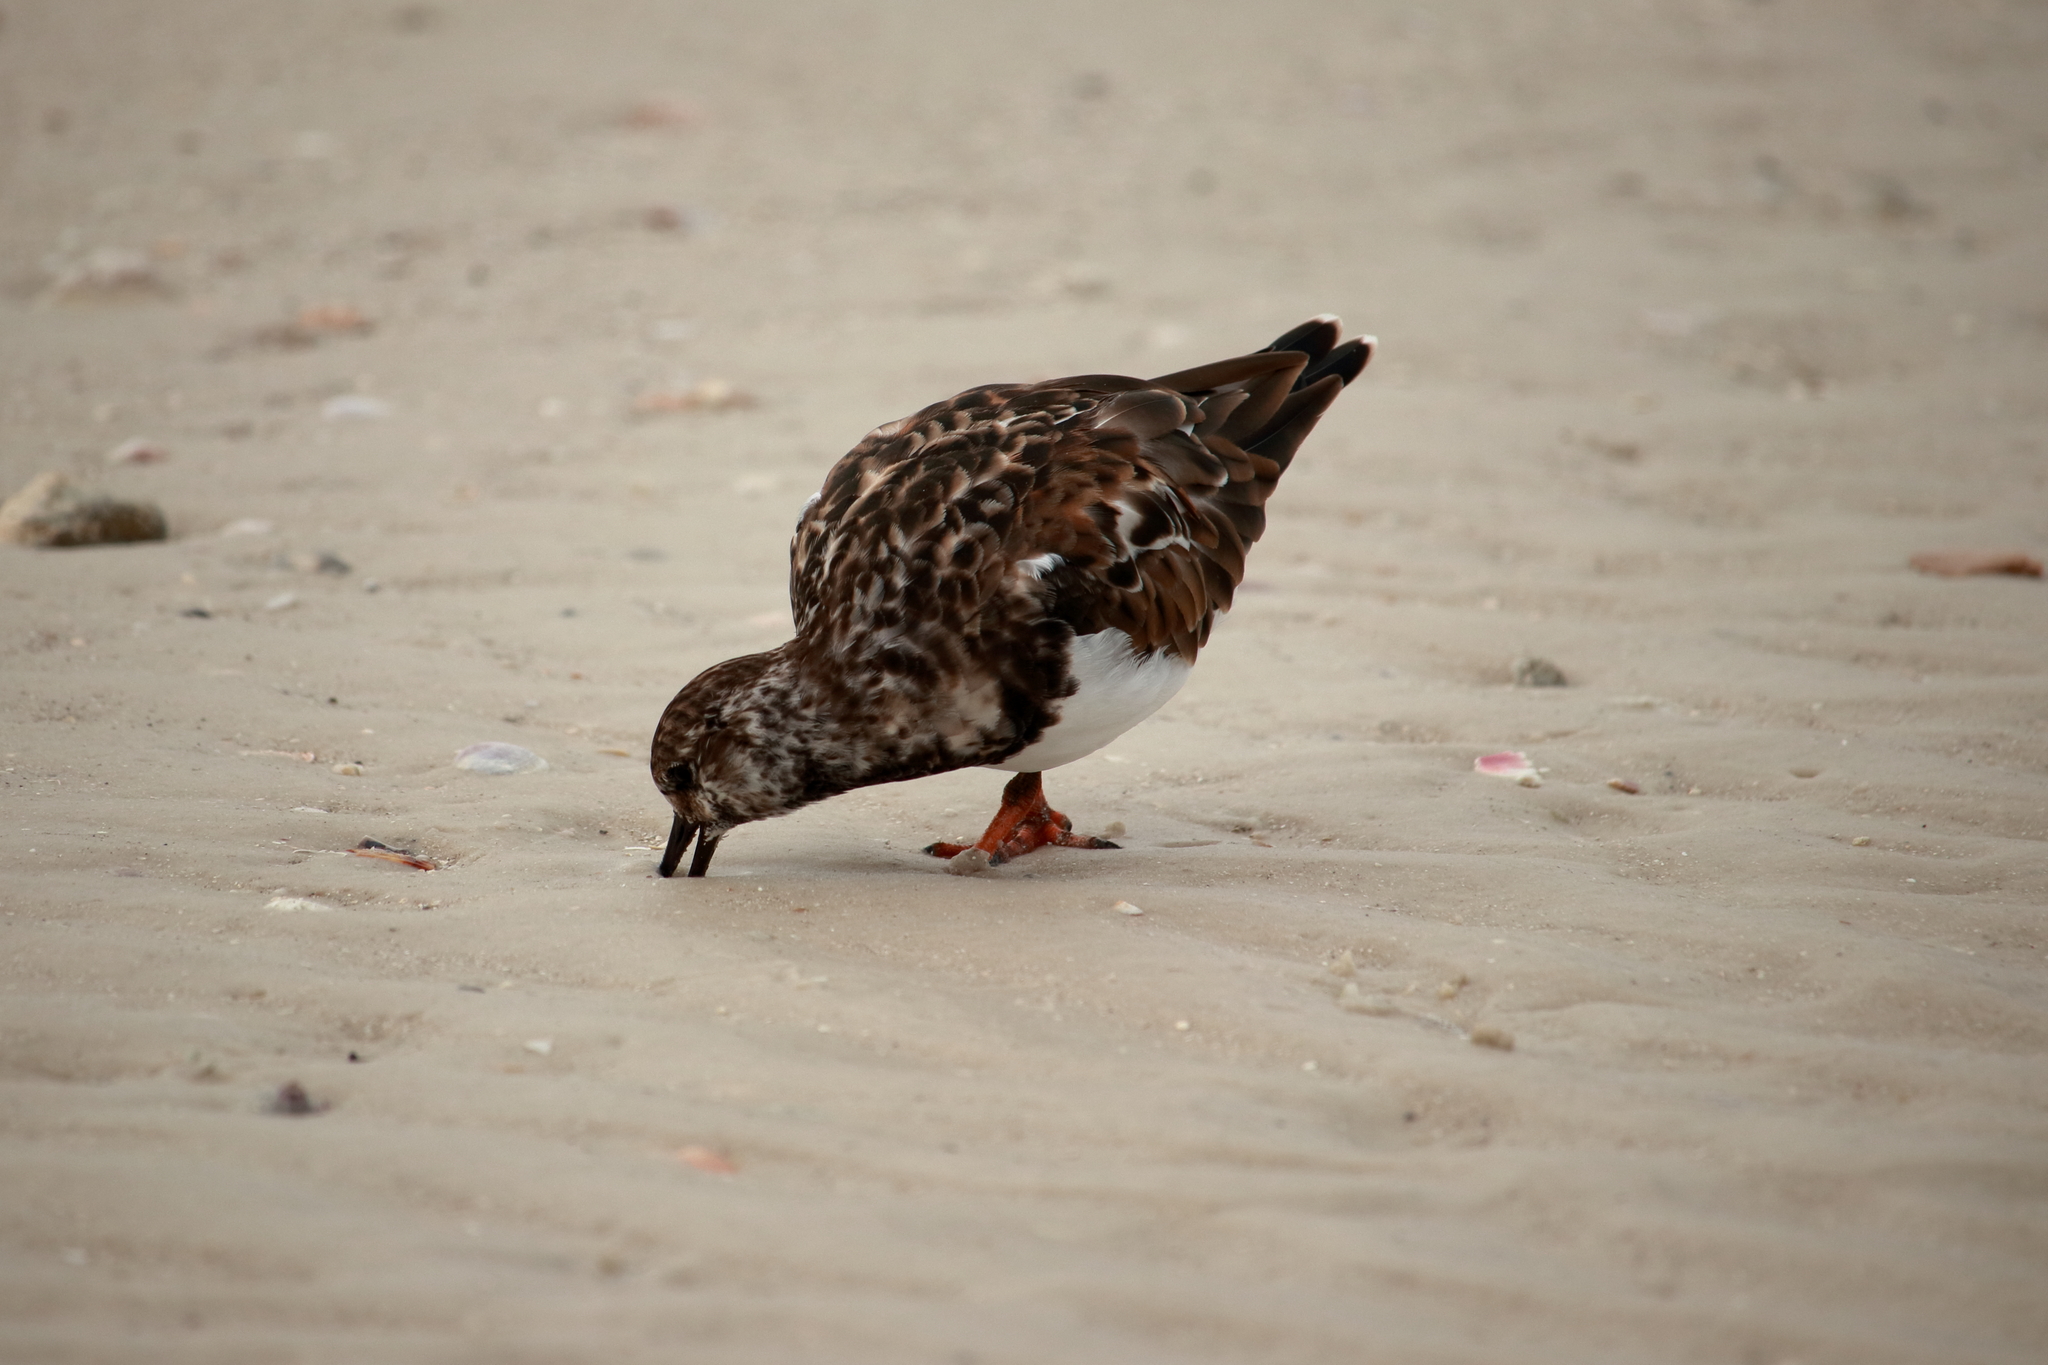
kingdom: Animalia
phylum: Chordata
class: Aves
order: Charadriiformes
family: Scolopacidae
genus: Arenaria
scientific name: Arenaria interpres
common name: Ruddy turnstone
